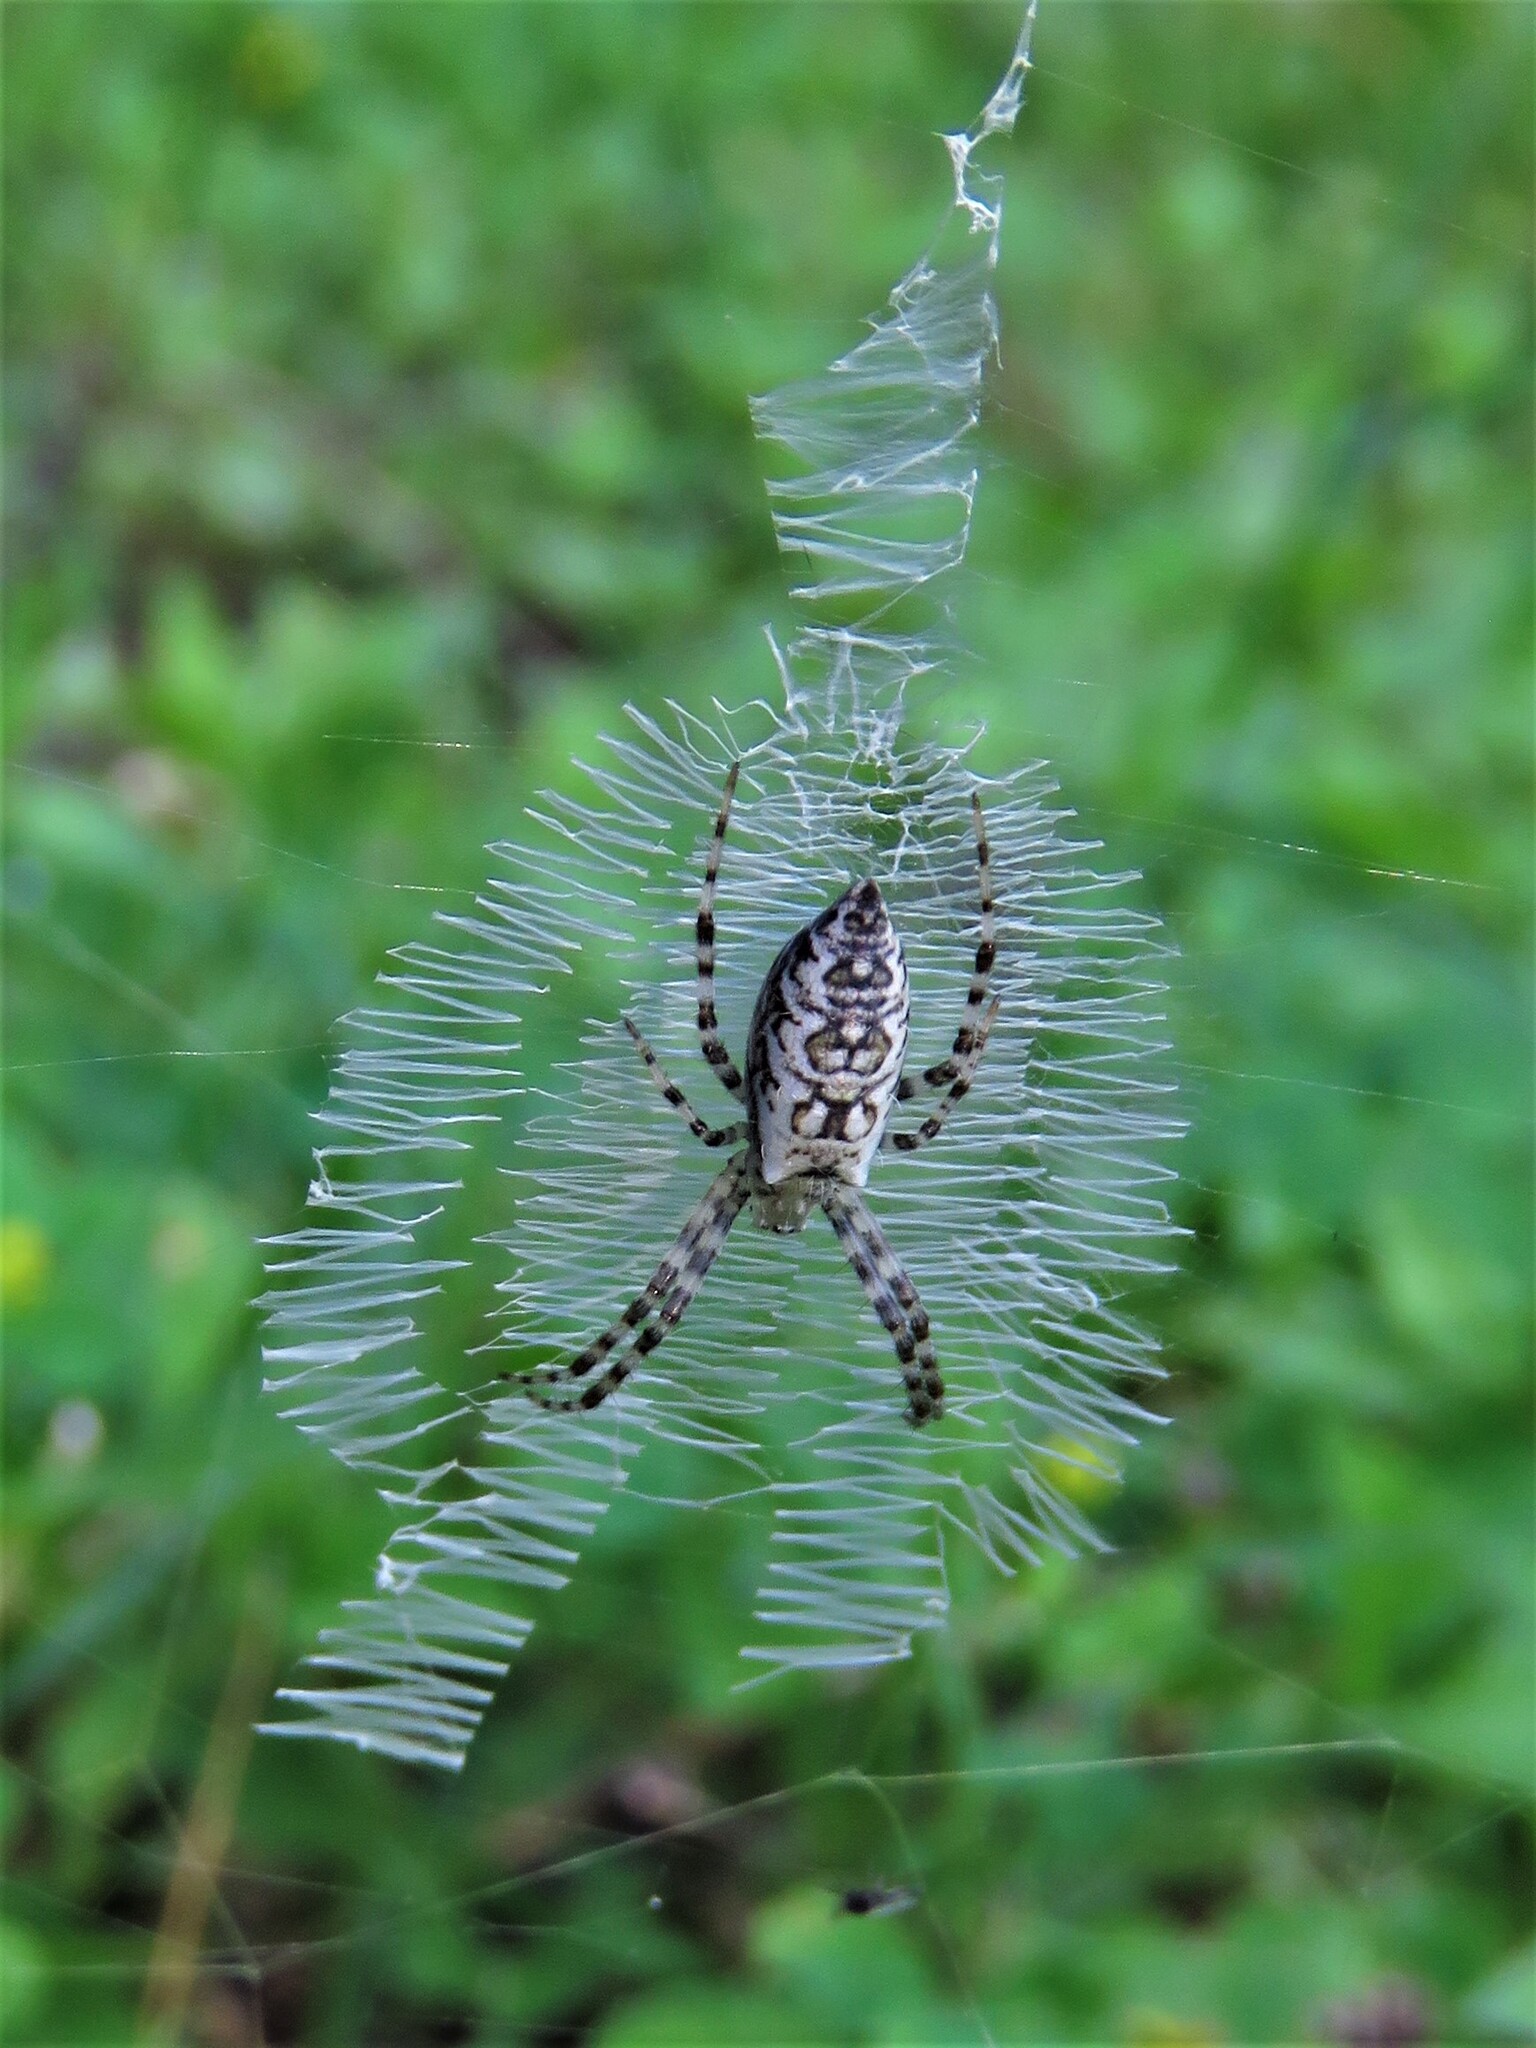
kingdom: Animalia
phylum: Arthropoda
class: Arachnida
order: Araneae
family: Araneidae
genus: Argiope
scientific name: Argiope aurantia
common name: Orb weavers
